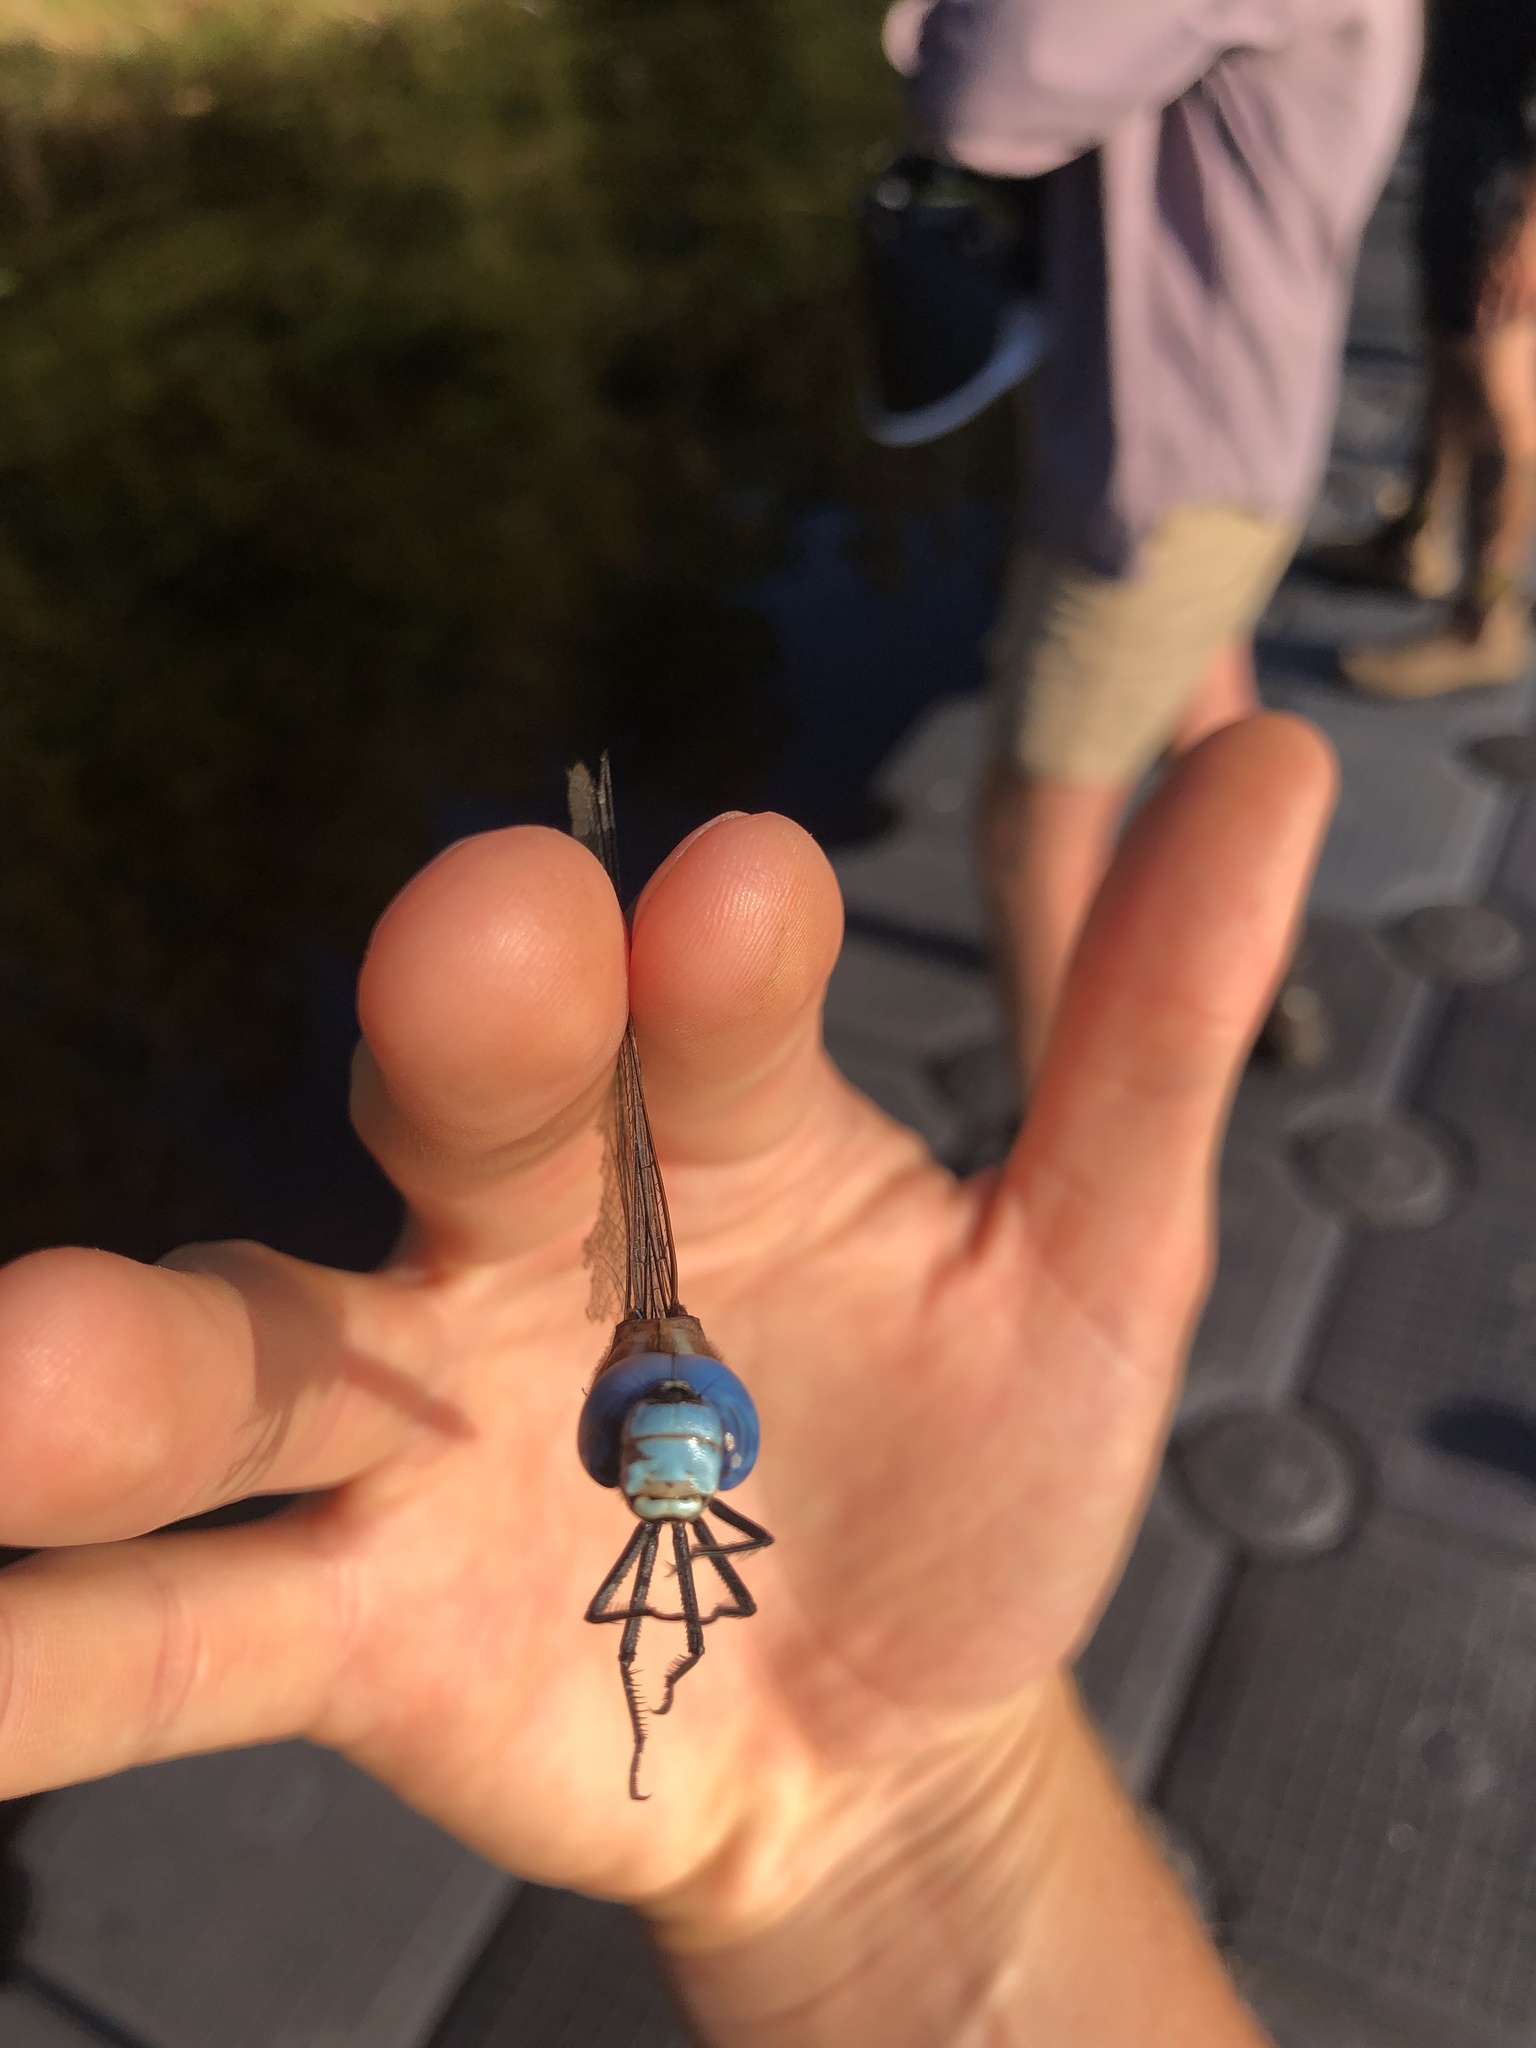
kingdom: Animalia
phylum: Arthropoda
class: Insecta
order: Odonata
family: Aeshnidae
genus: Rhionaeschna
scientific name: Rhionaeschna multicolor
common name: Blue-eyed darner
